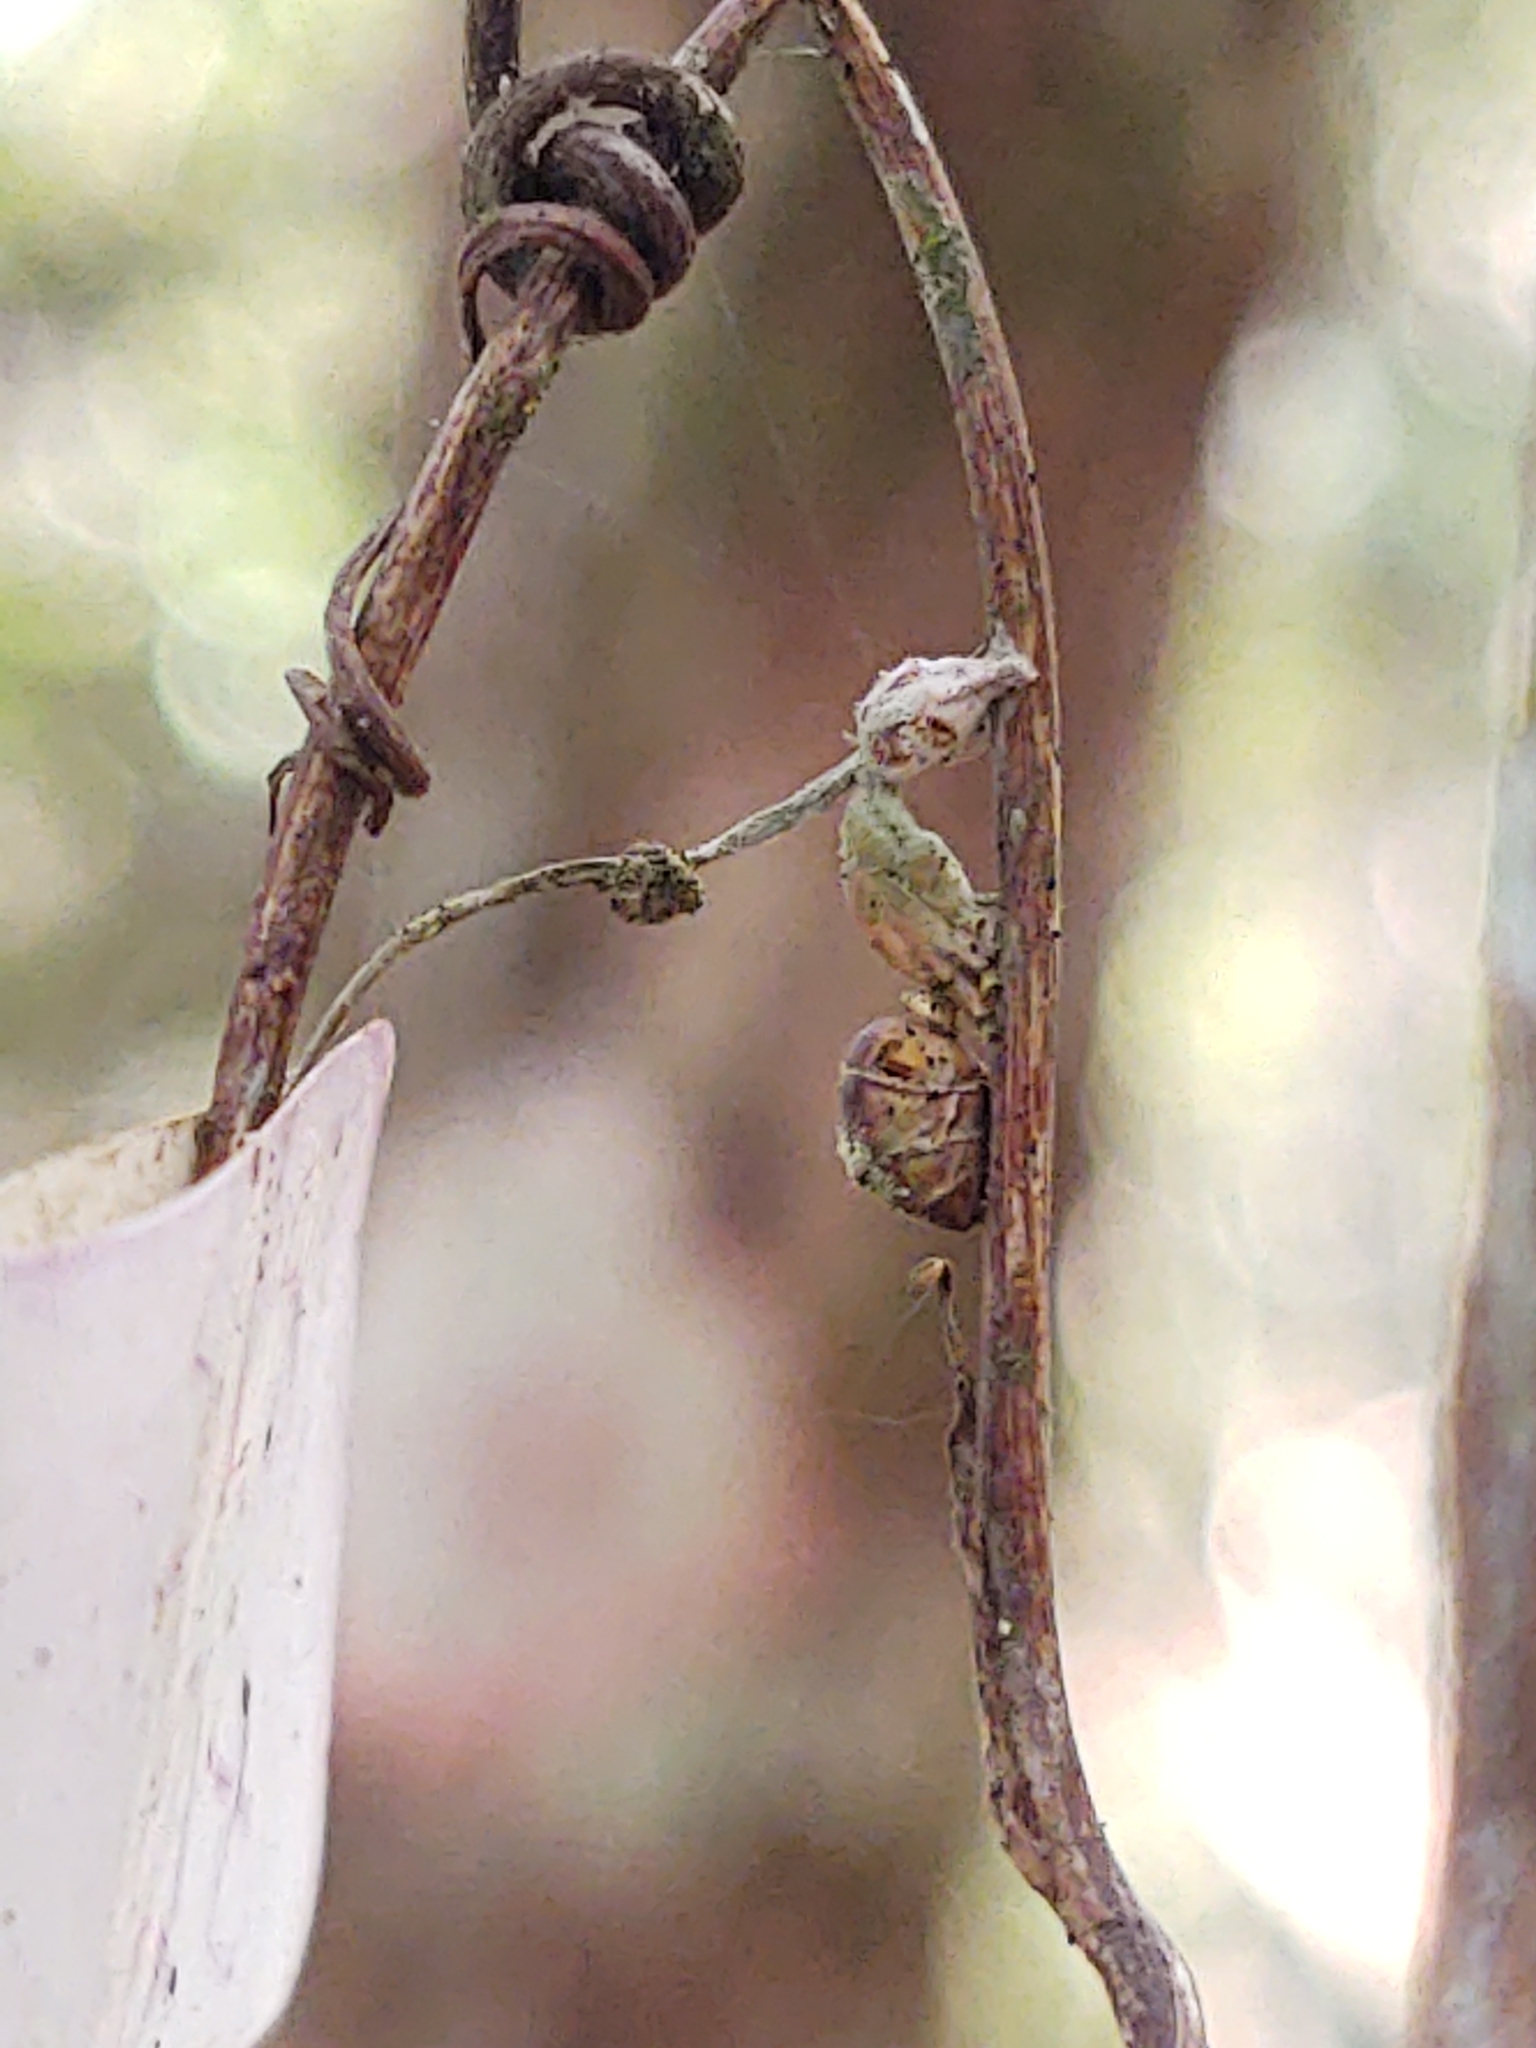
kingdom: Fungi
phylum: Ascomycota
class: Sordariomycetes
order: Hypocreales
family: Ophiocordycipitaceae
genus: Ophiocordyceps
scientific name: Ophiocordyceps camponoti-floridani
